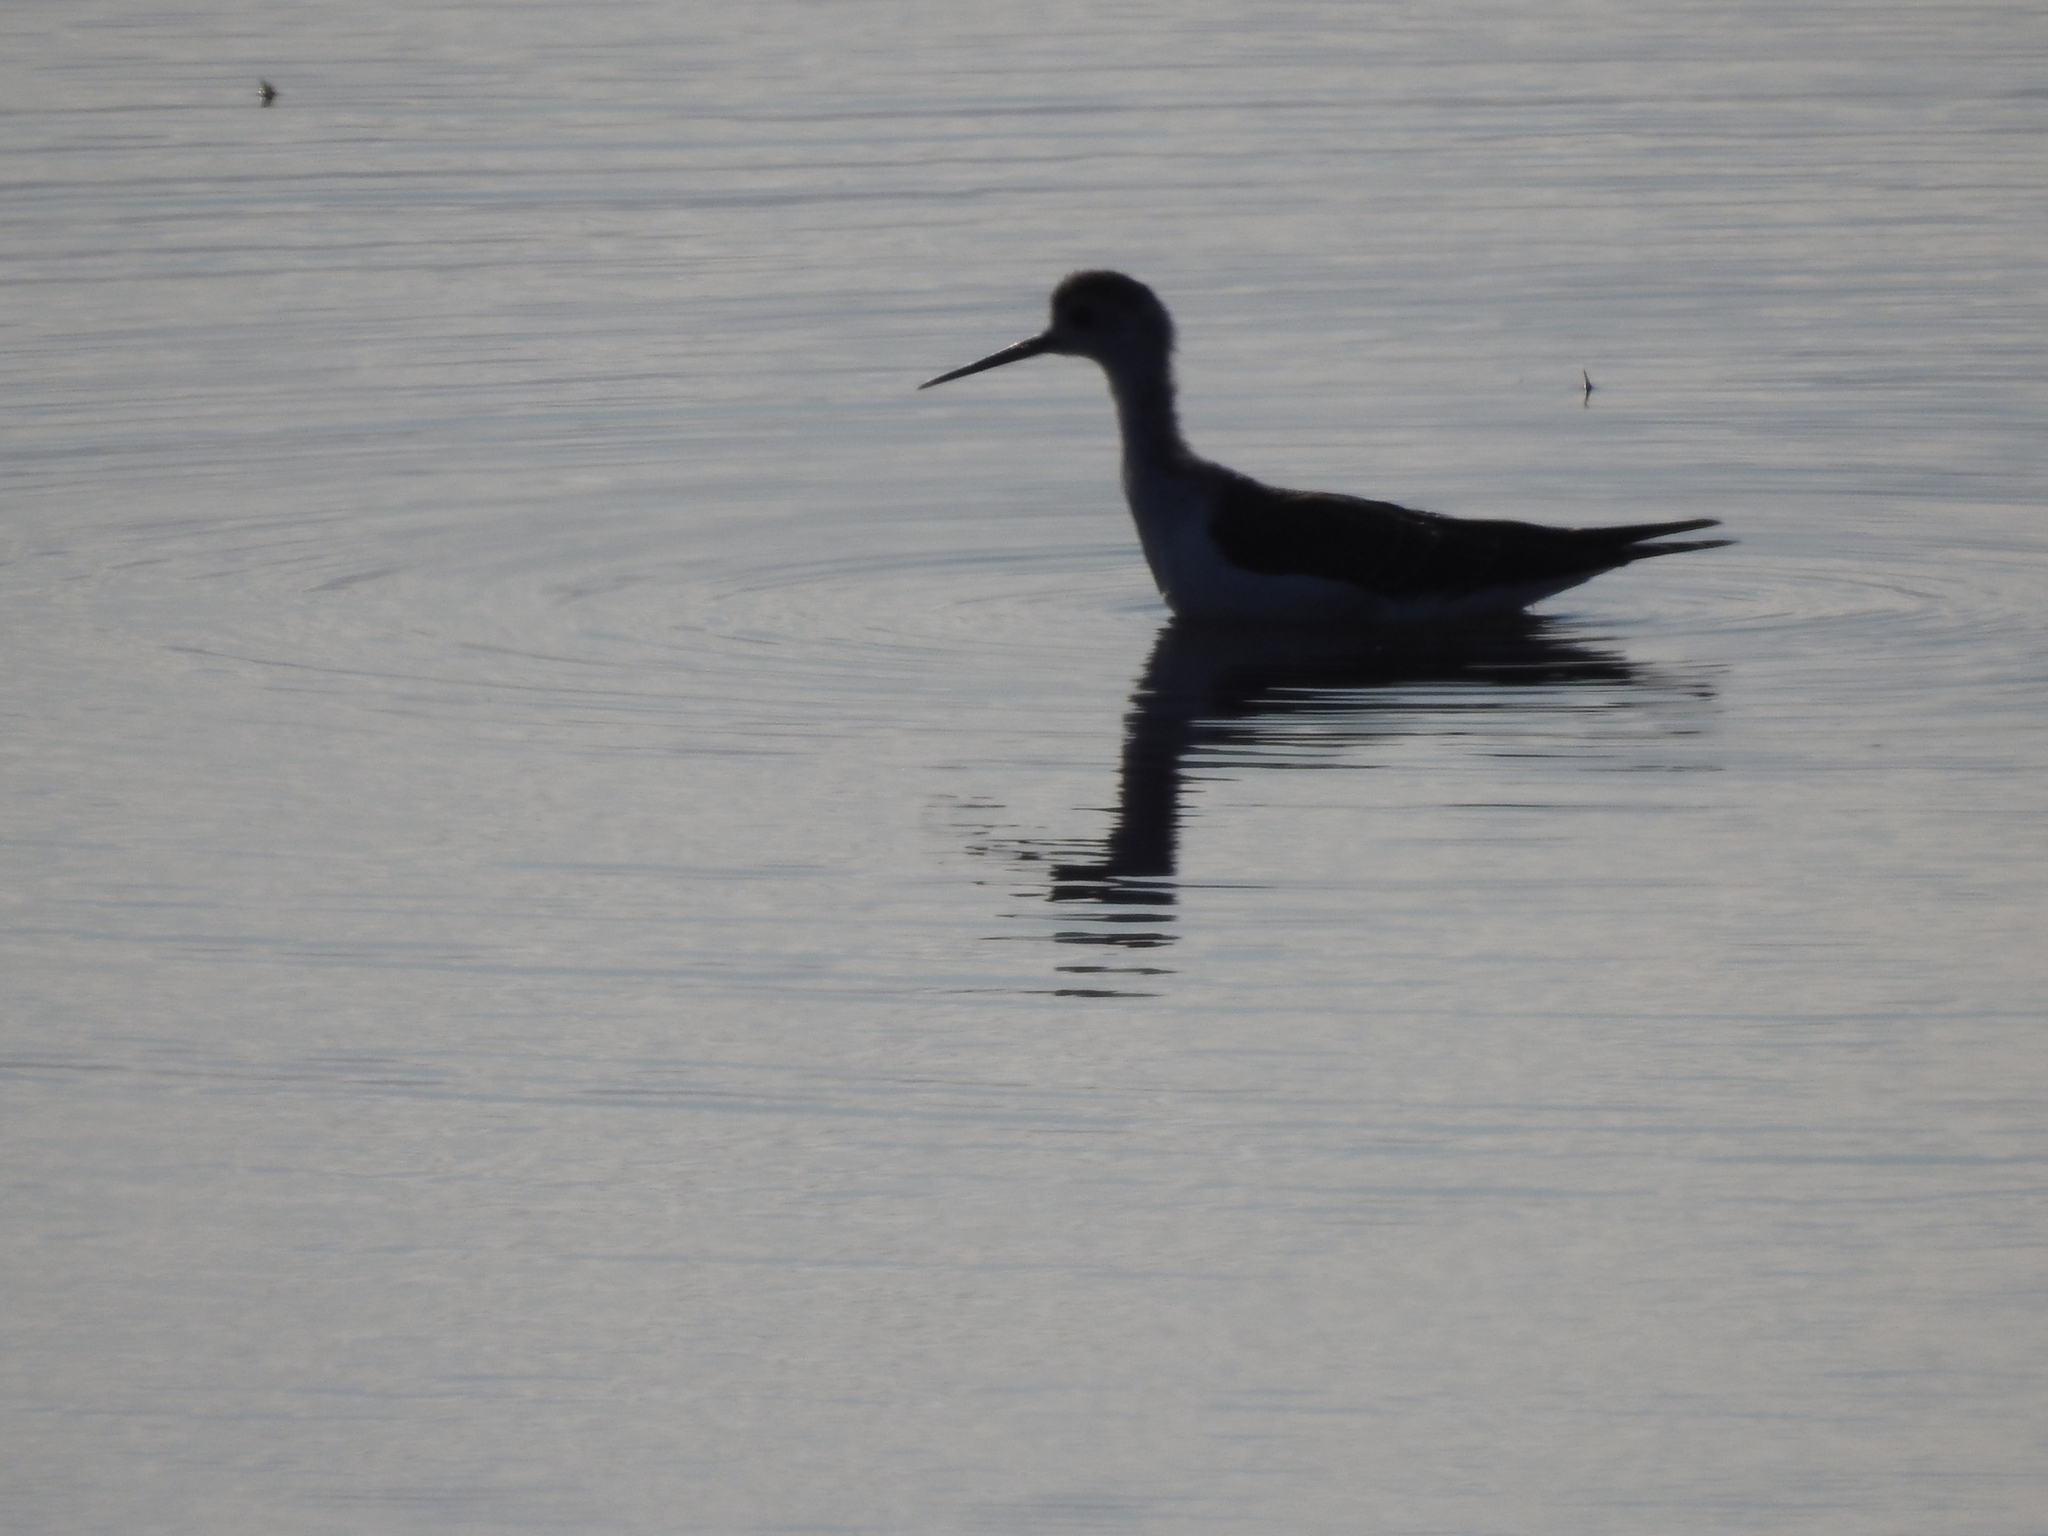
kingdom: Animalia
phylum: Chordata
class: Aves
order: Charadriiformes
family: Recurvirostridae
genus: Himantopus
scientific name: Himantopus himantopus
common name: Black-winged stilt
